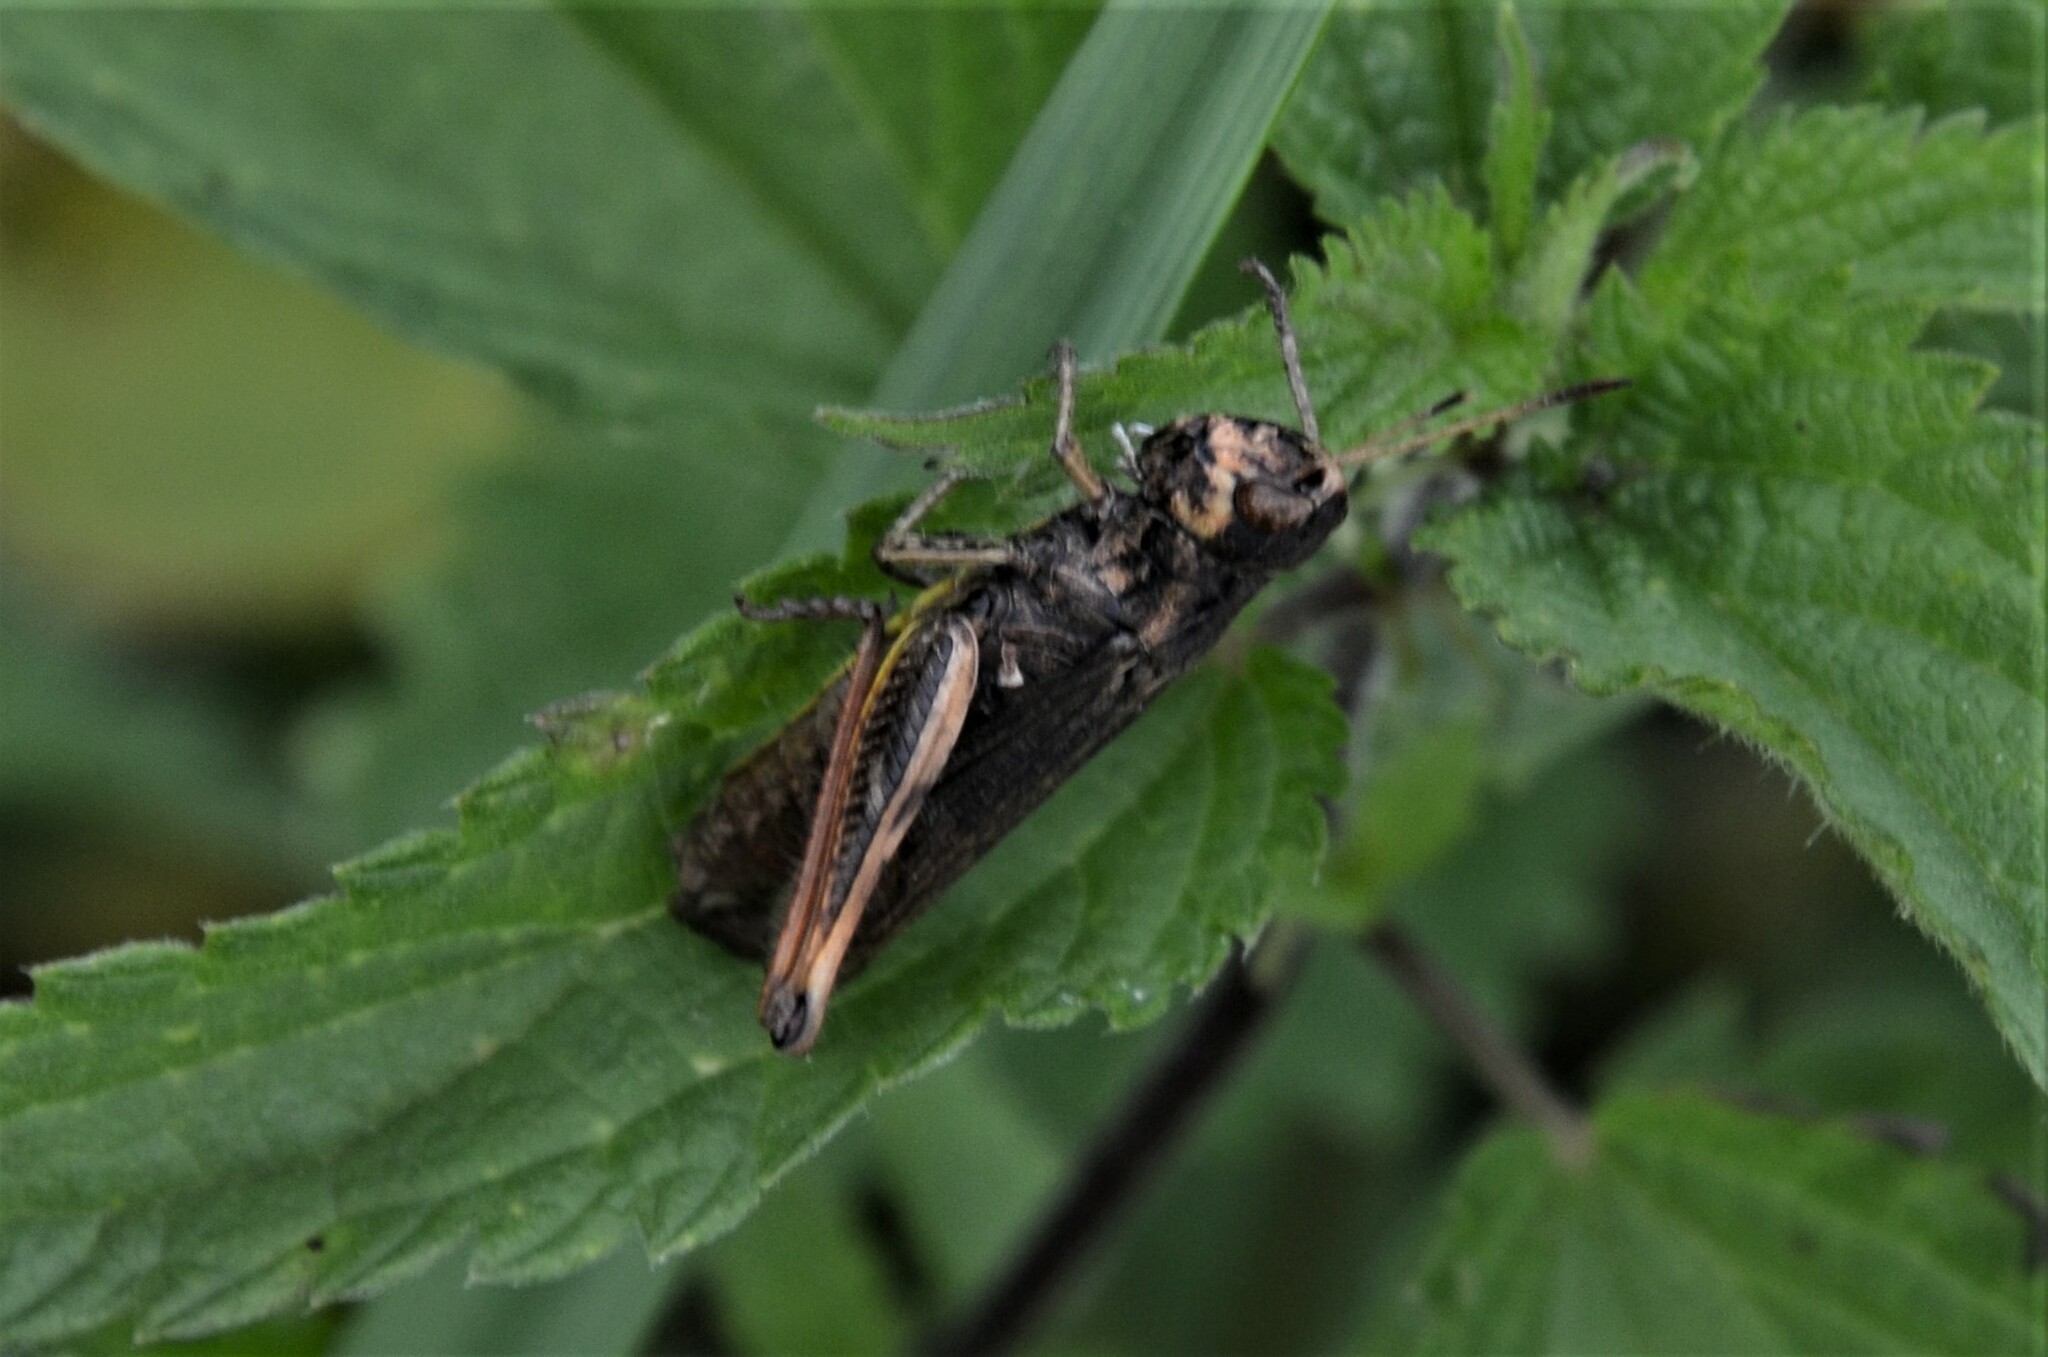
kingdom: Animalia
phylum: Arthropoda
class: Insecta
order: Orthoptera
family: Acrididae
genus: Gomphocerippus
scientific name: Gomphocerippus rufus
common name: Rufous grasshopper
